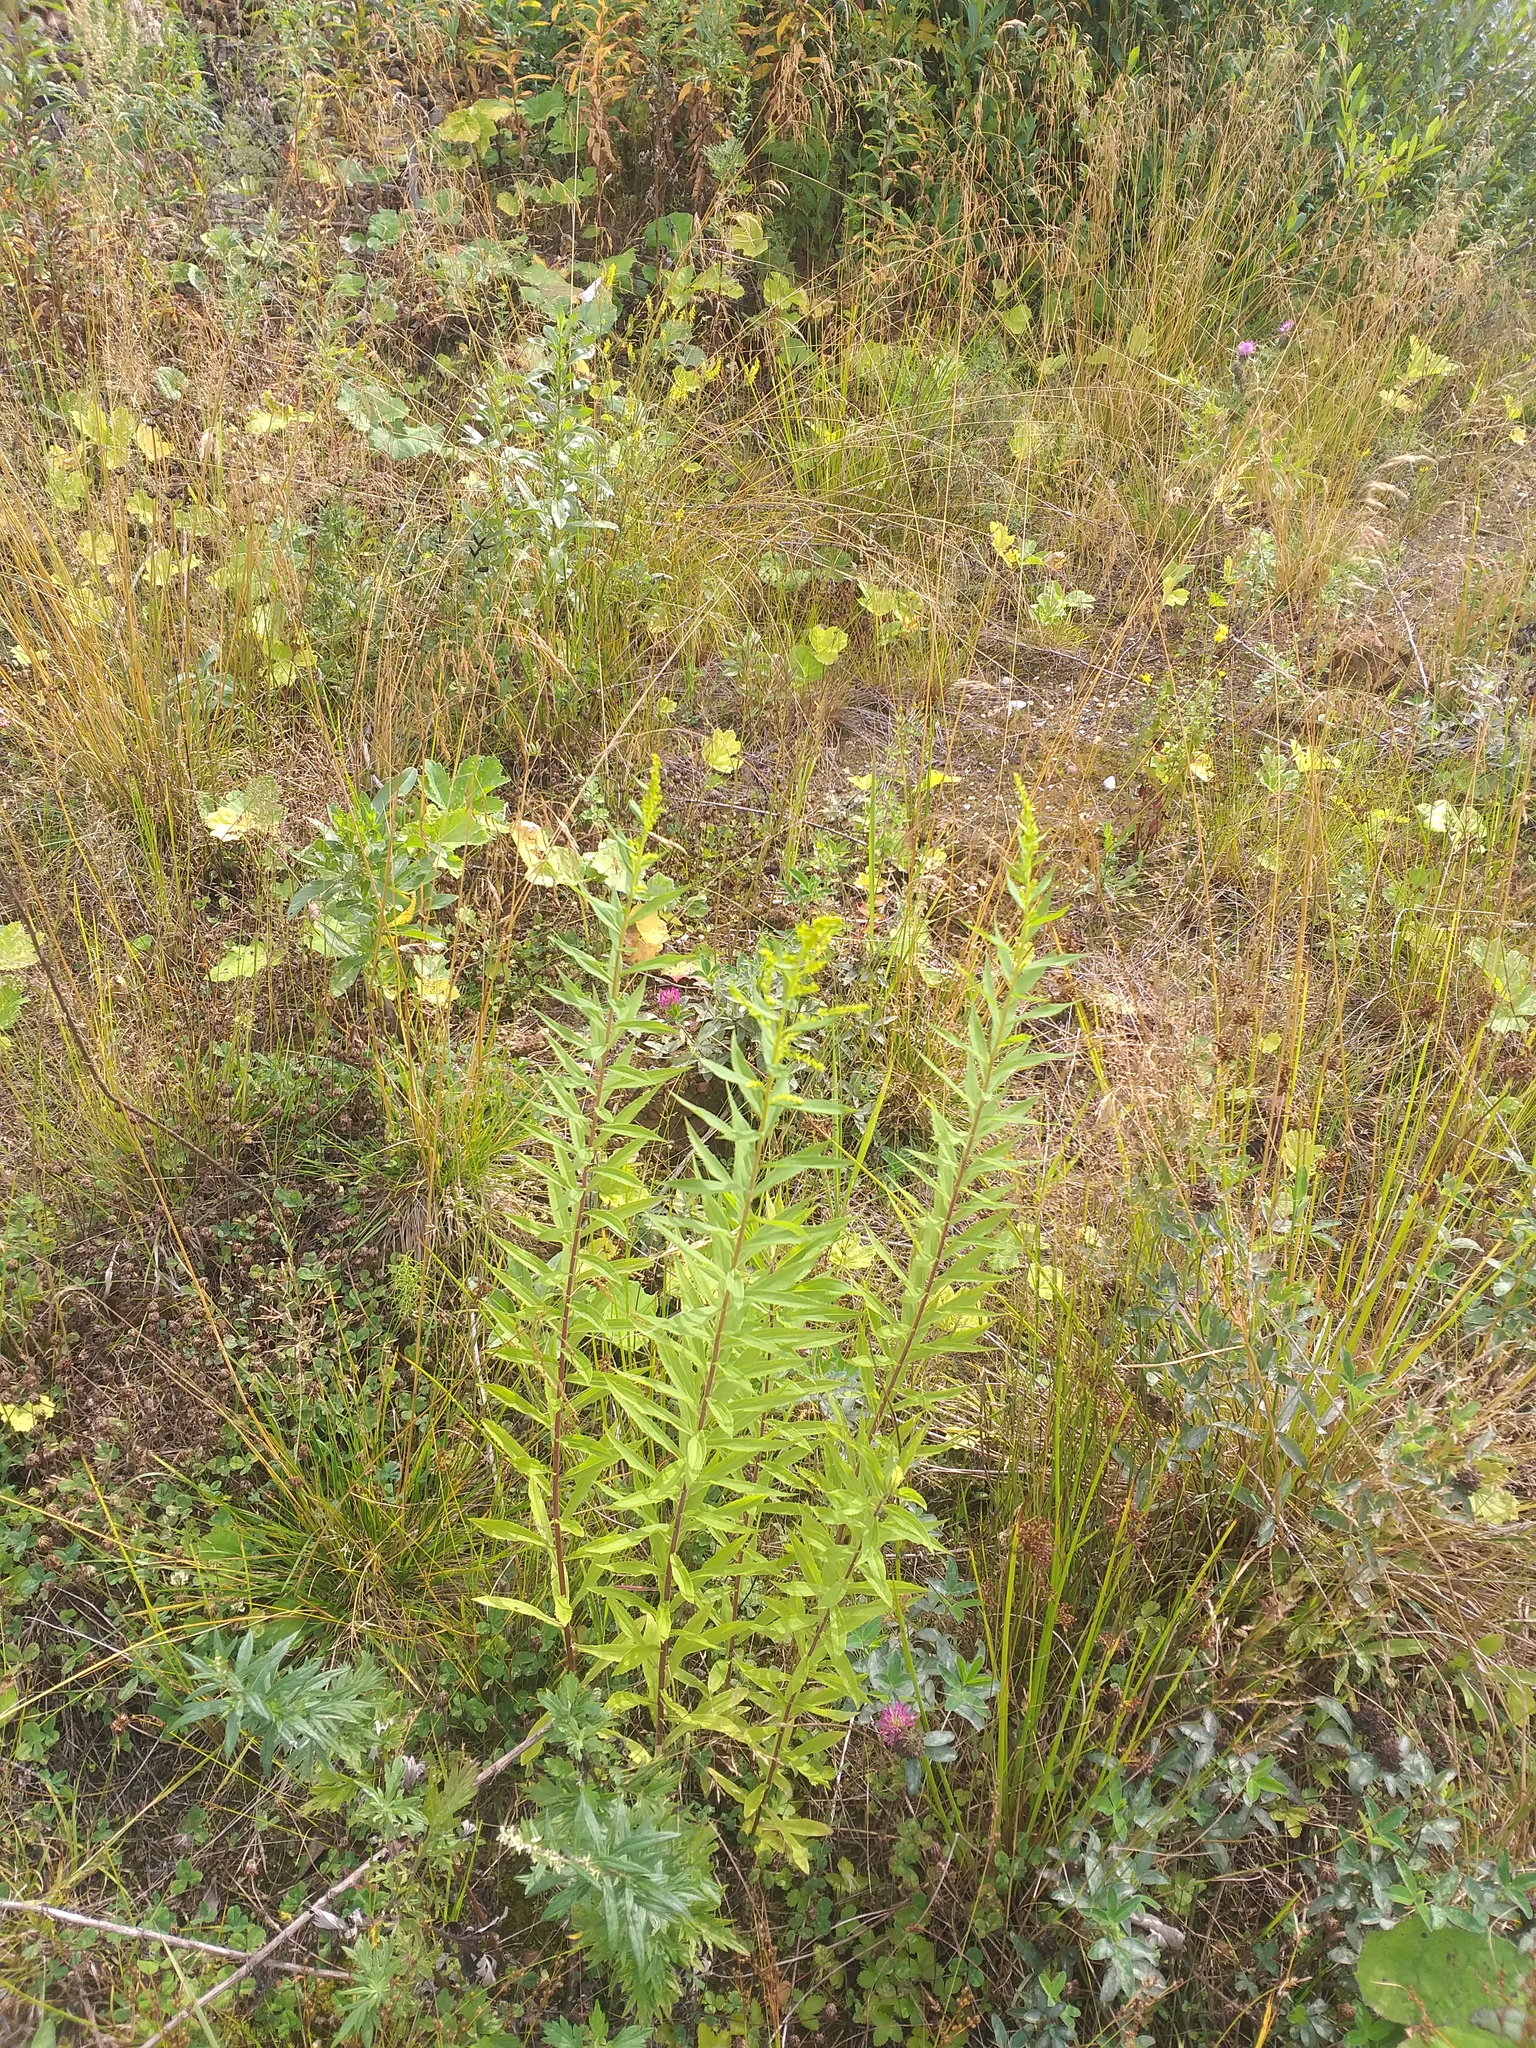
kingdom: Plantae
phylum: Tracheophyta
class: Magnoliopsida
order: Asterales
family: Asteraceae
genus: Solidago
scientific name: Solidago canadensis
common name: Canada goldenrod
